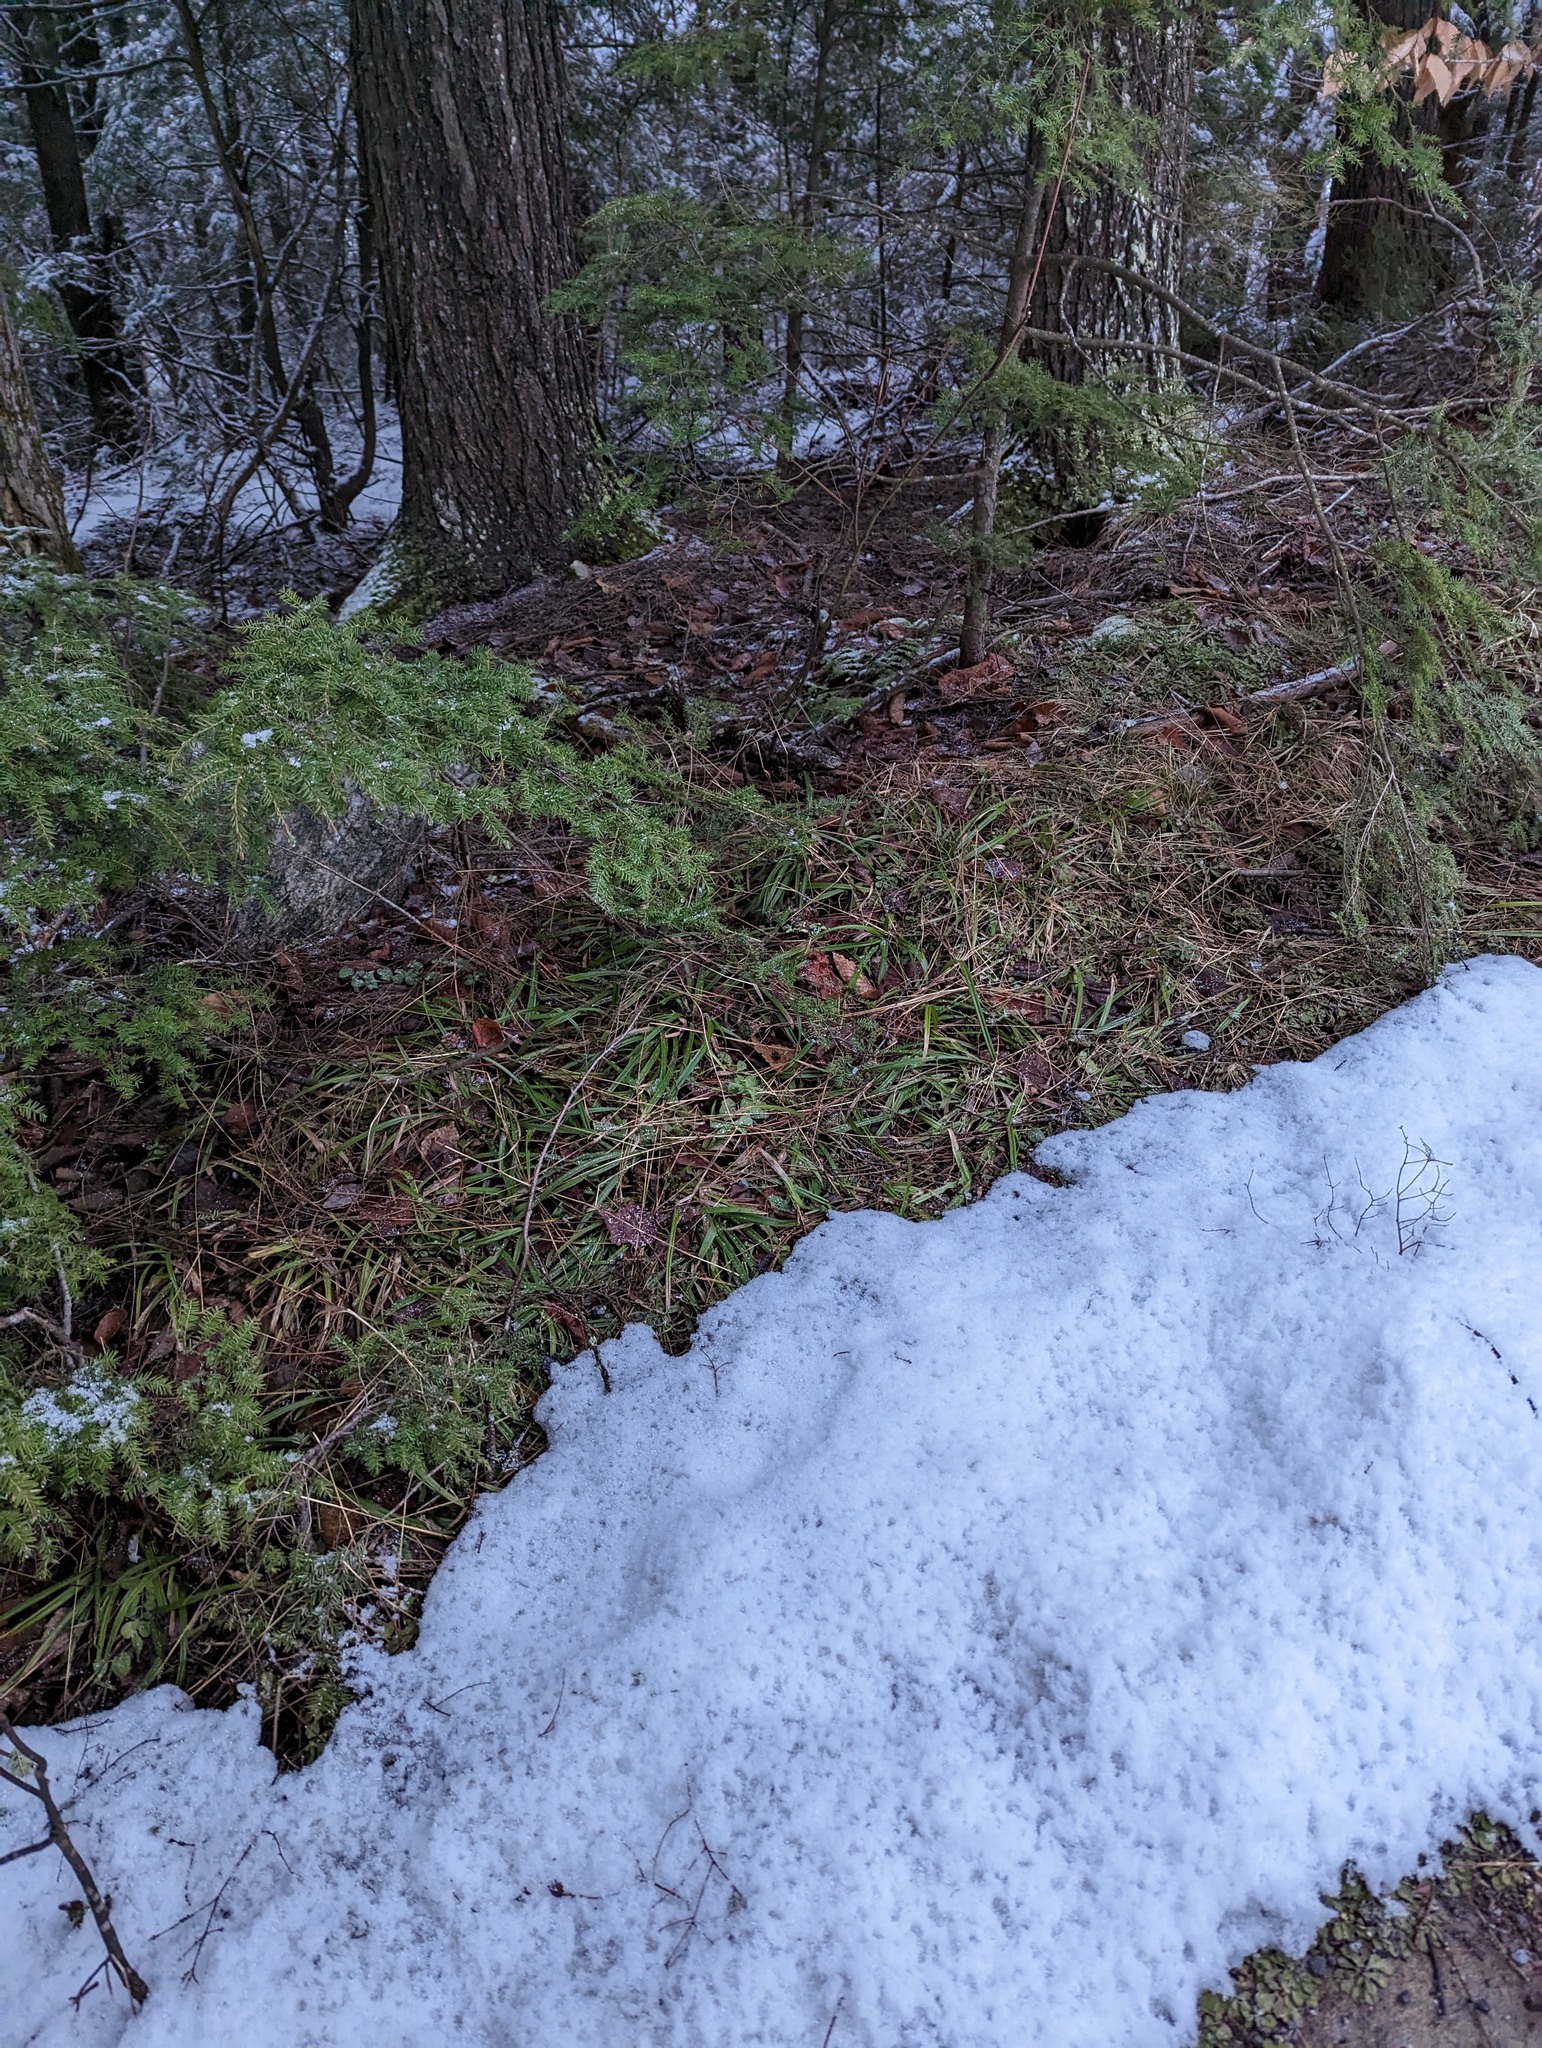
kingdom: Plantae
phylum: Tracheophyta
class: Pinopsida
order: Pinales
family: Pinaceae
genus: Tsuga
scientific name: Tsuga canadensis
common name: Eastern hemlock
